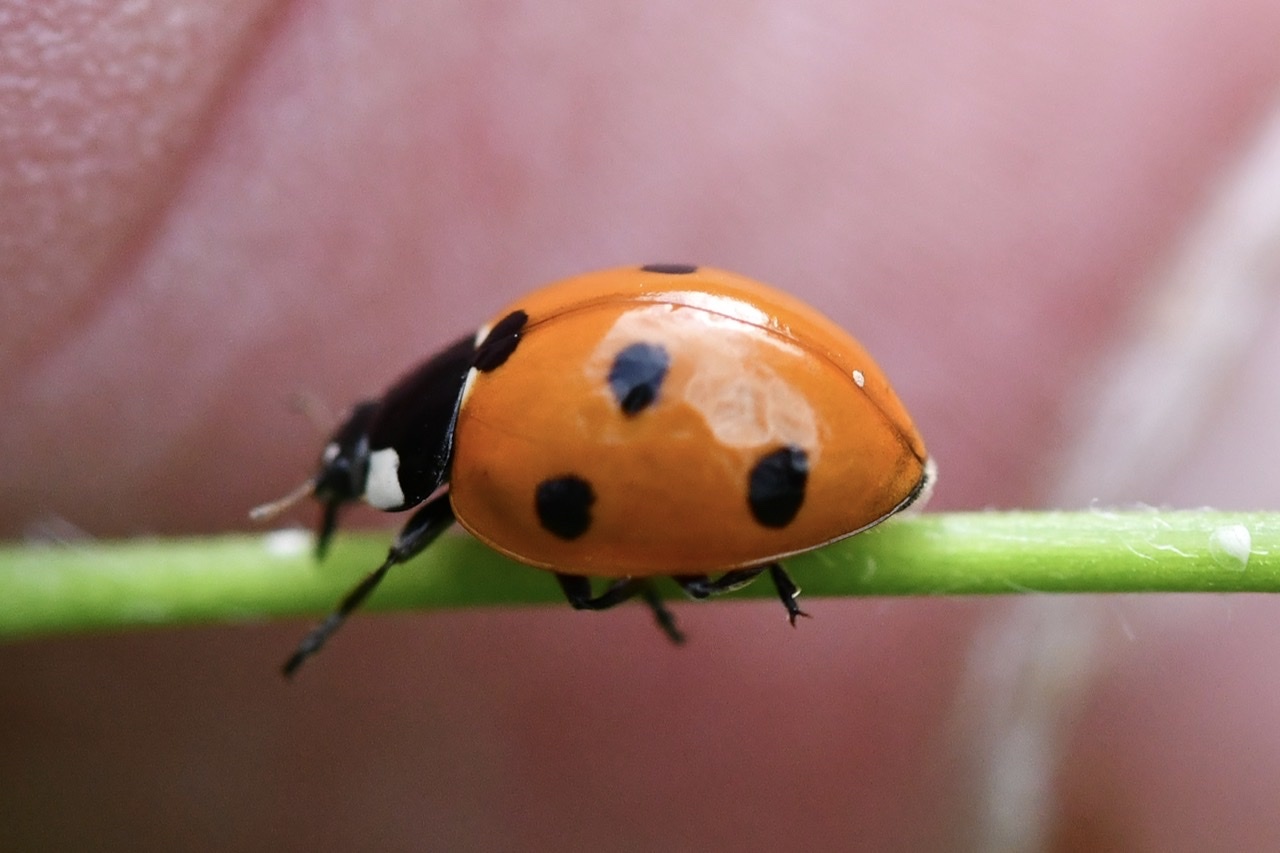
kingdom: Animalia
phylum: Arthropoda
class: Insecta
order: Coleoptera
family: Coccinellidae
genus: Coccinella
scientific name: Coccinella septempunctata
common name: Sevenspotted lady beetle
